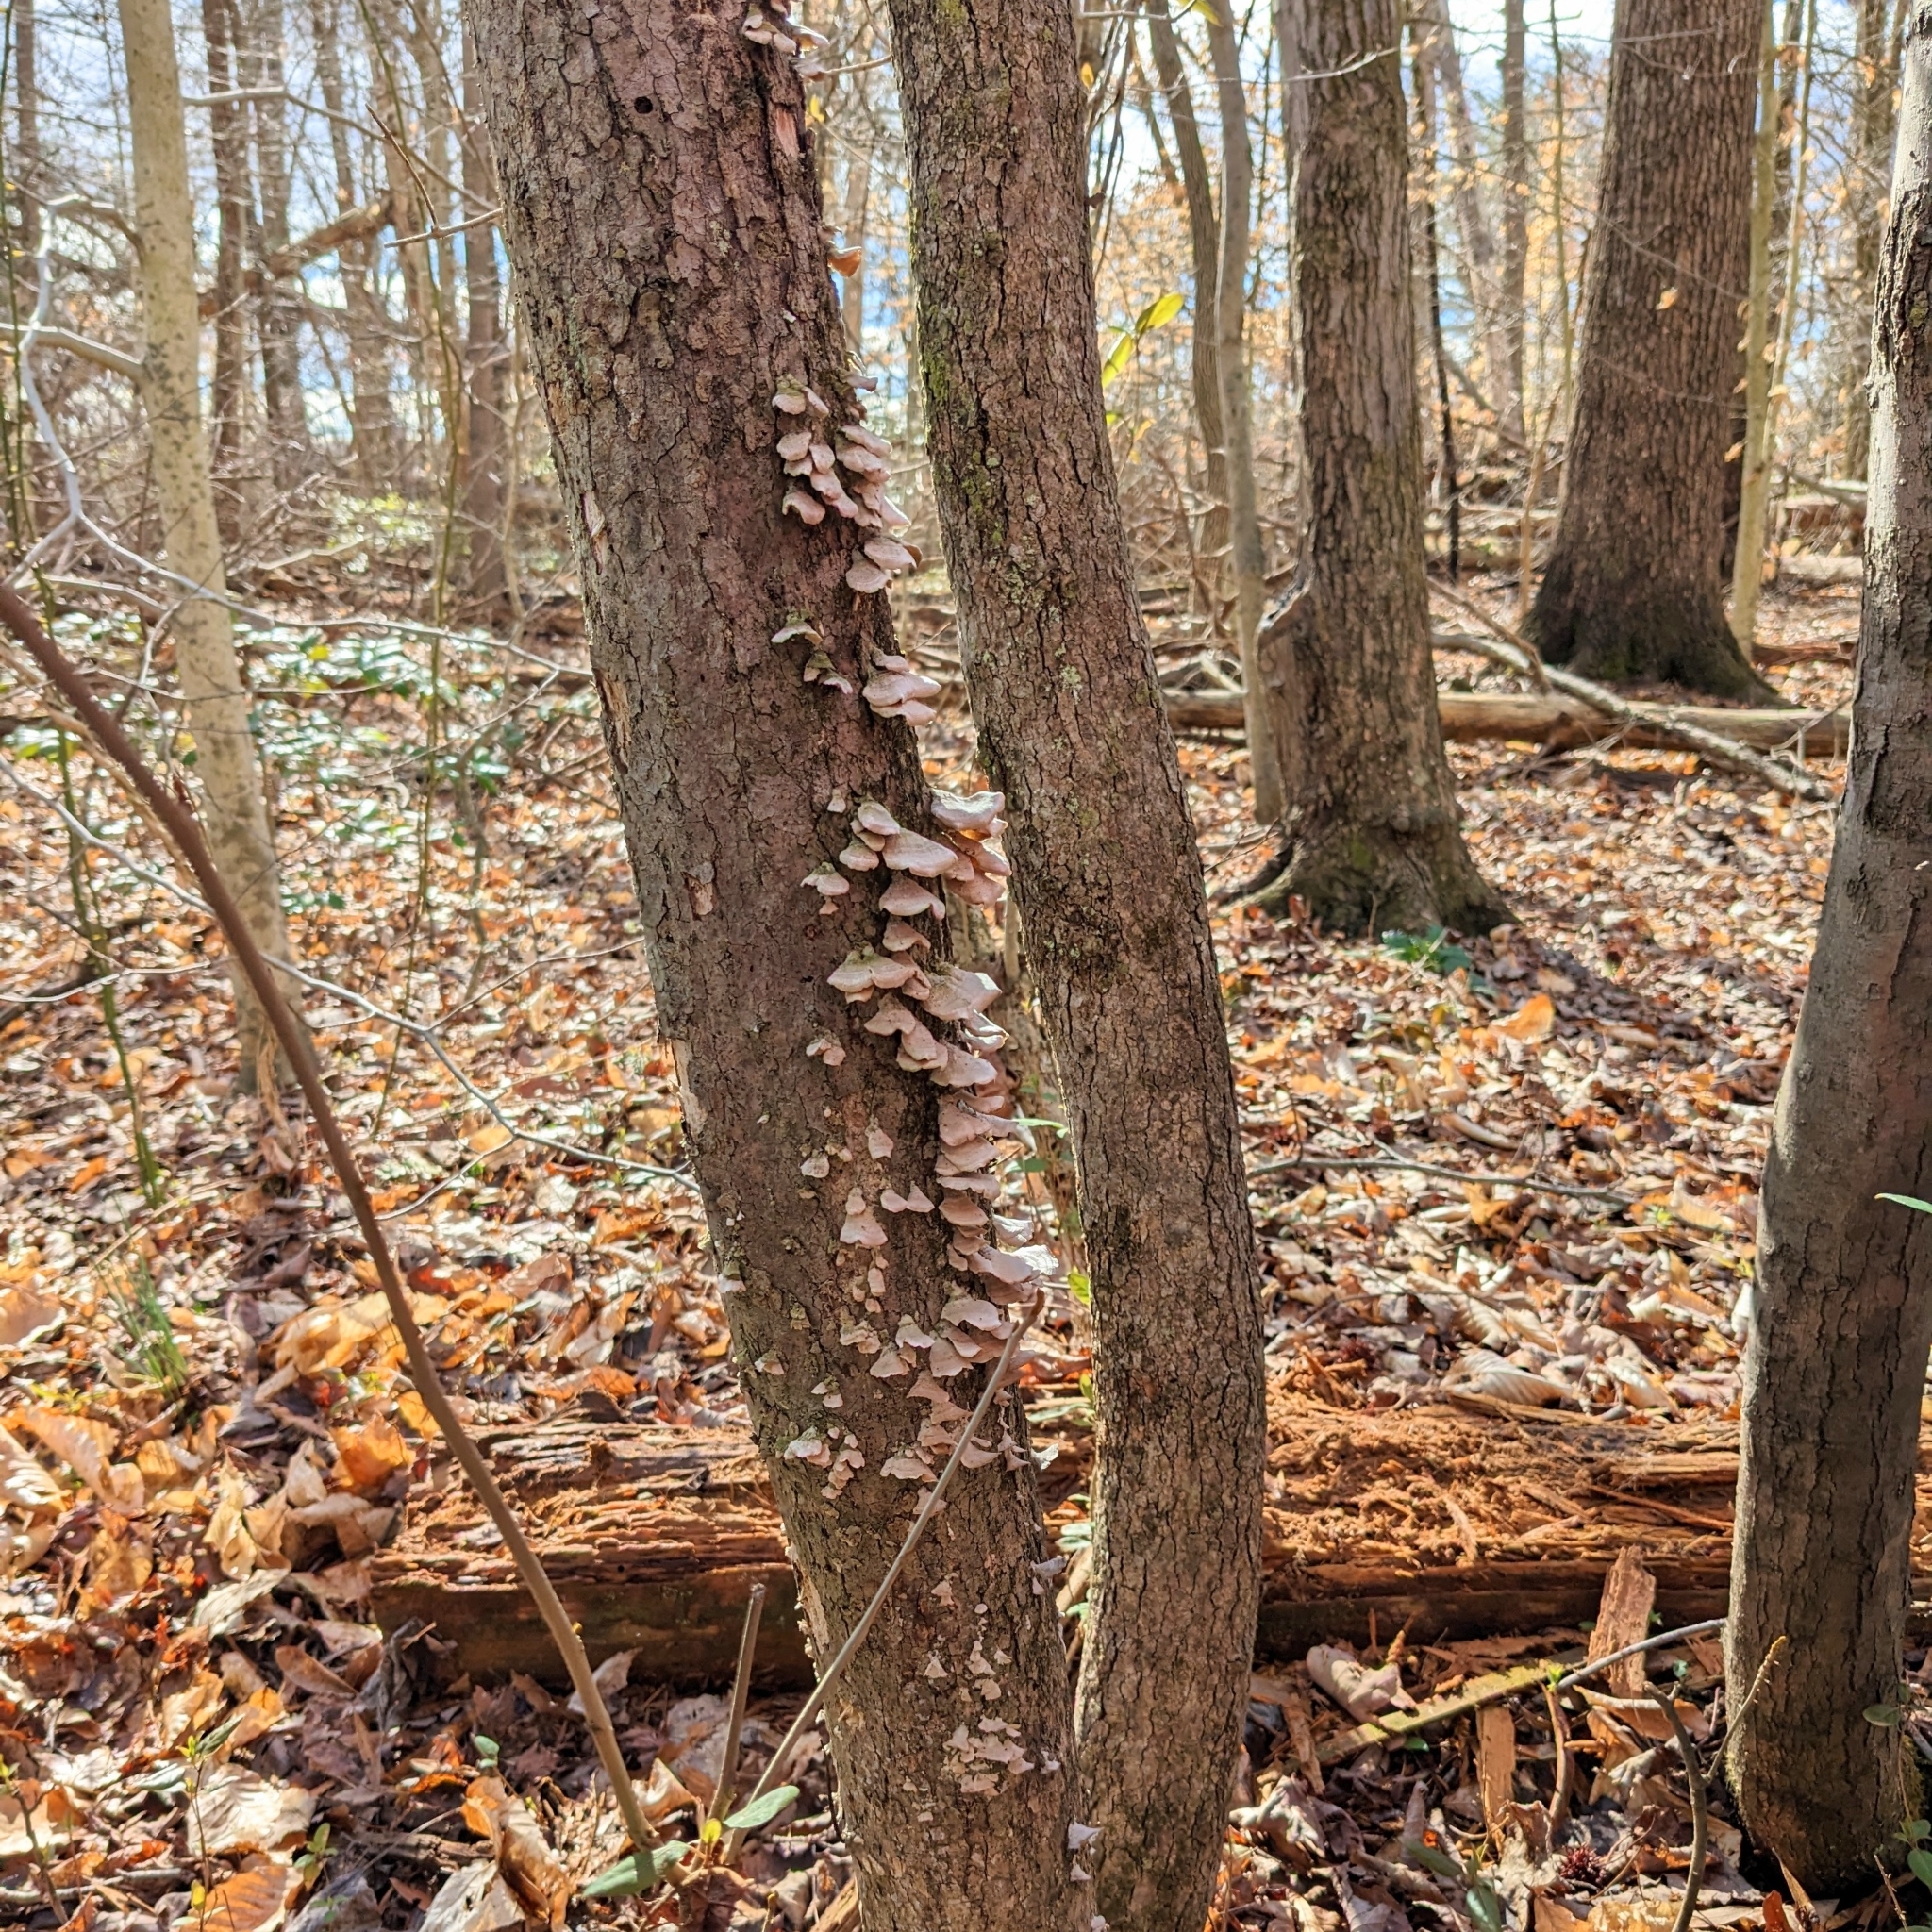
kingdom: Fungi
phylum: Basidiomycota
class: Agaricomycetes
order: Hymenochaetales
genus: Trichaptum
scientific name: Trichaptum biforme
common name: Violet-toothed polypore
